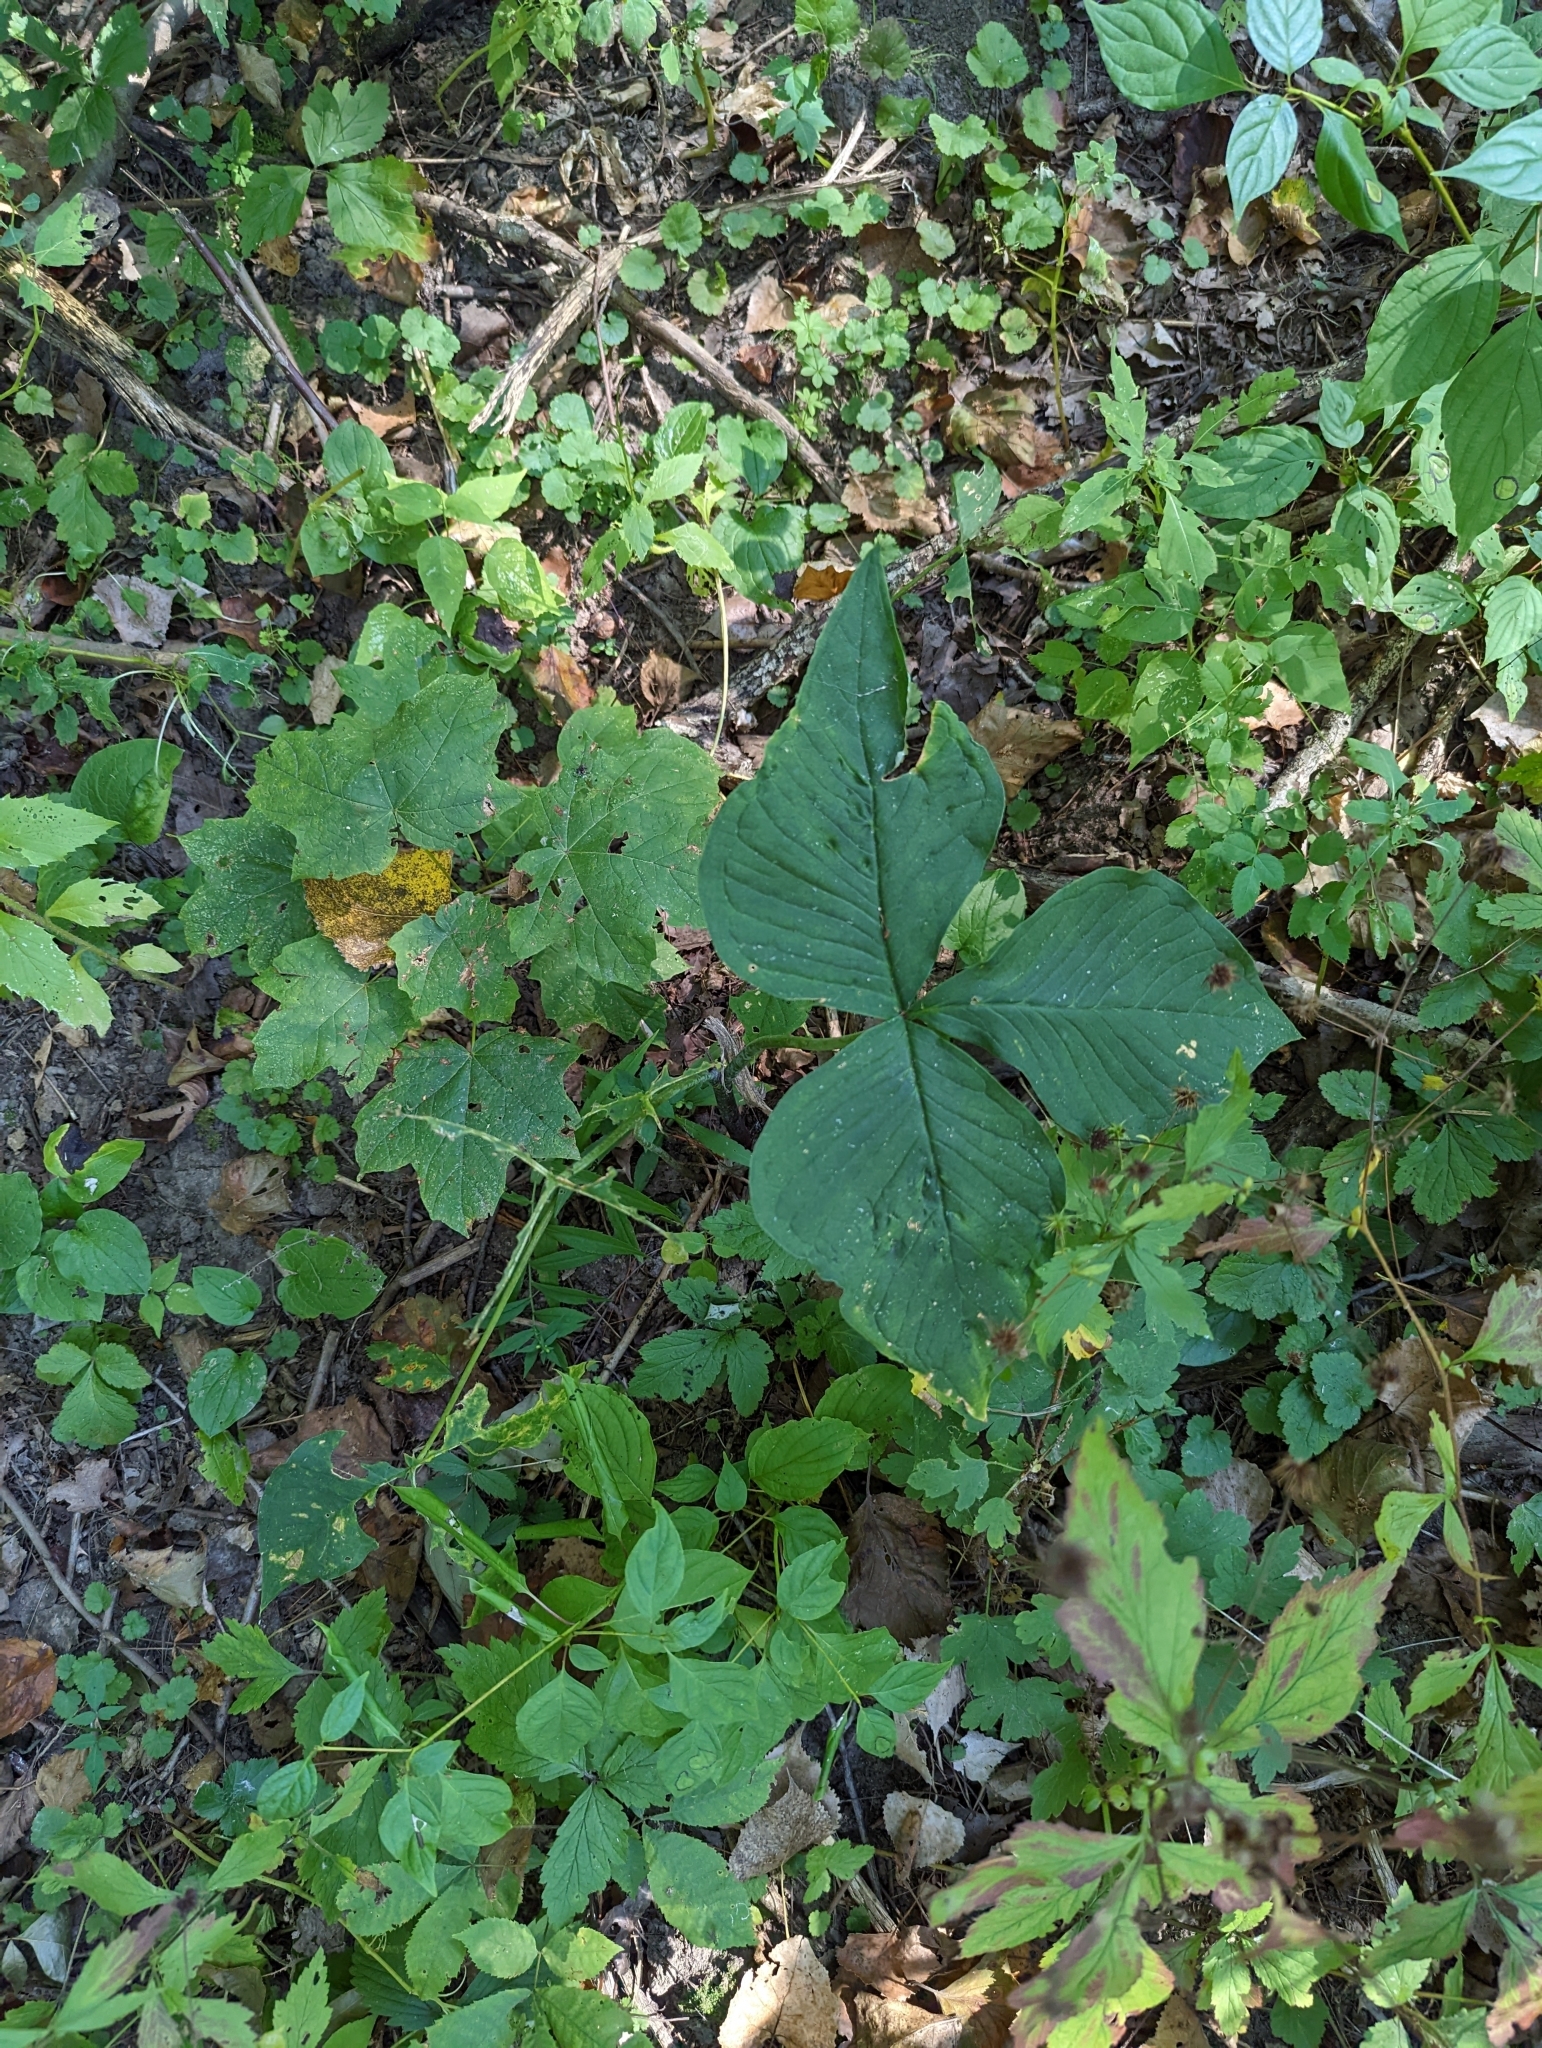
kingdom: Plantae
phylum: Tracheophyta
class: Liliopsida
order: Alismatales
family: Araceae
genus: Arisaema
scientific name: Arisaema triphyllum
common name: Jack-in-the-pulpit
